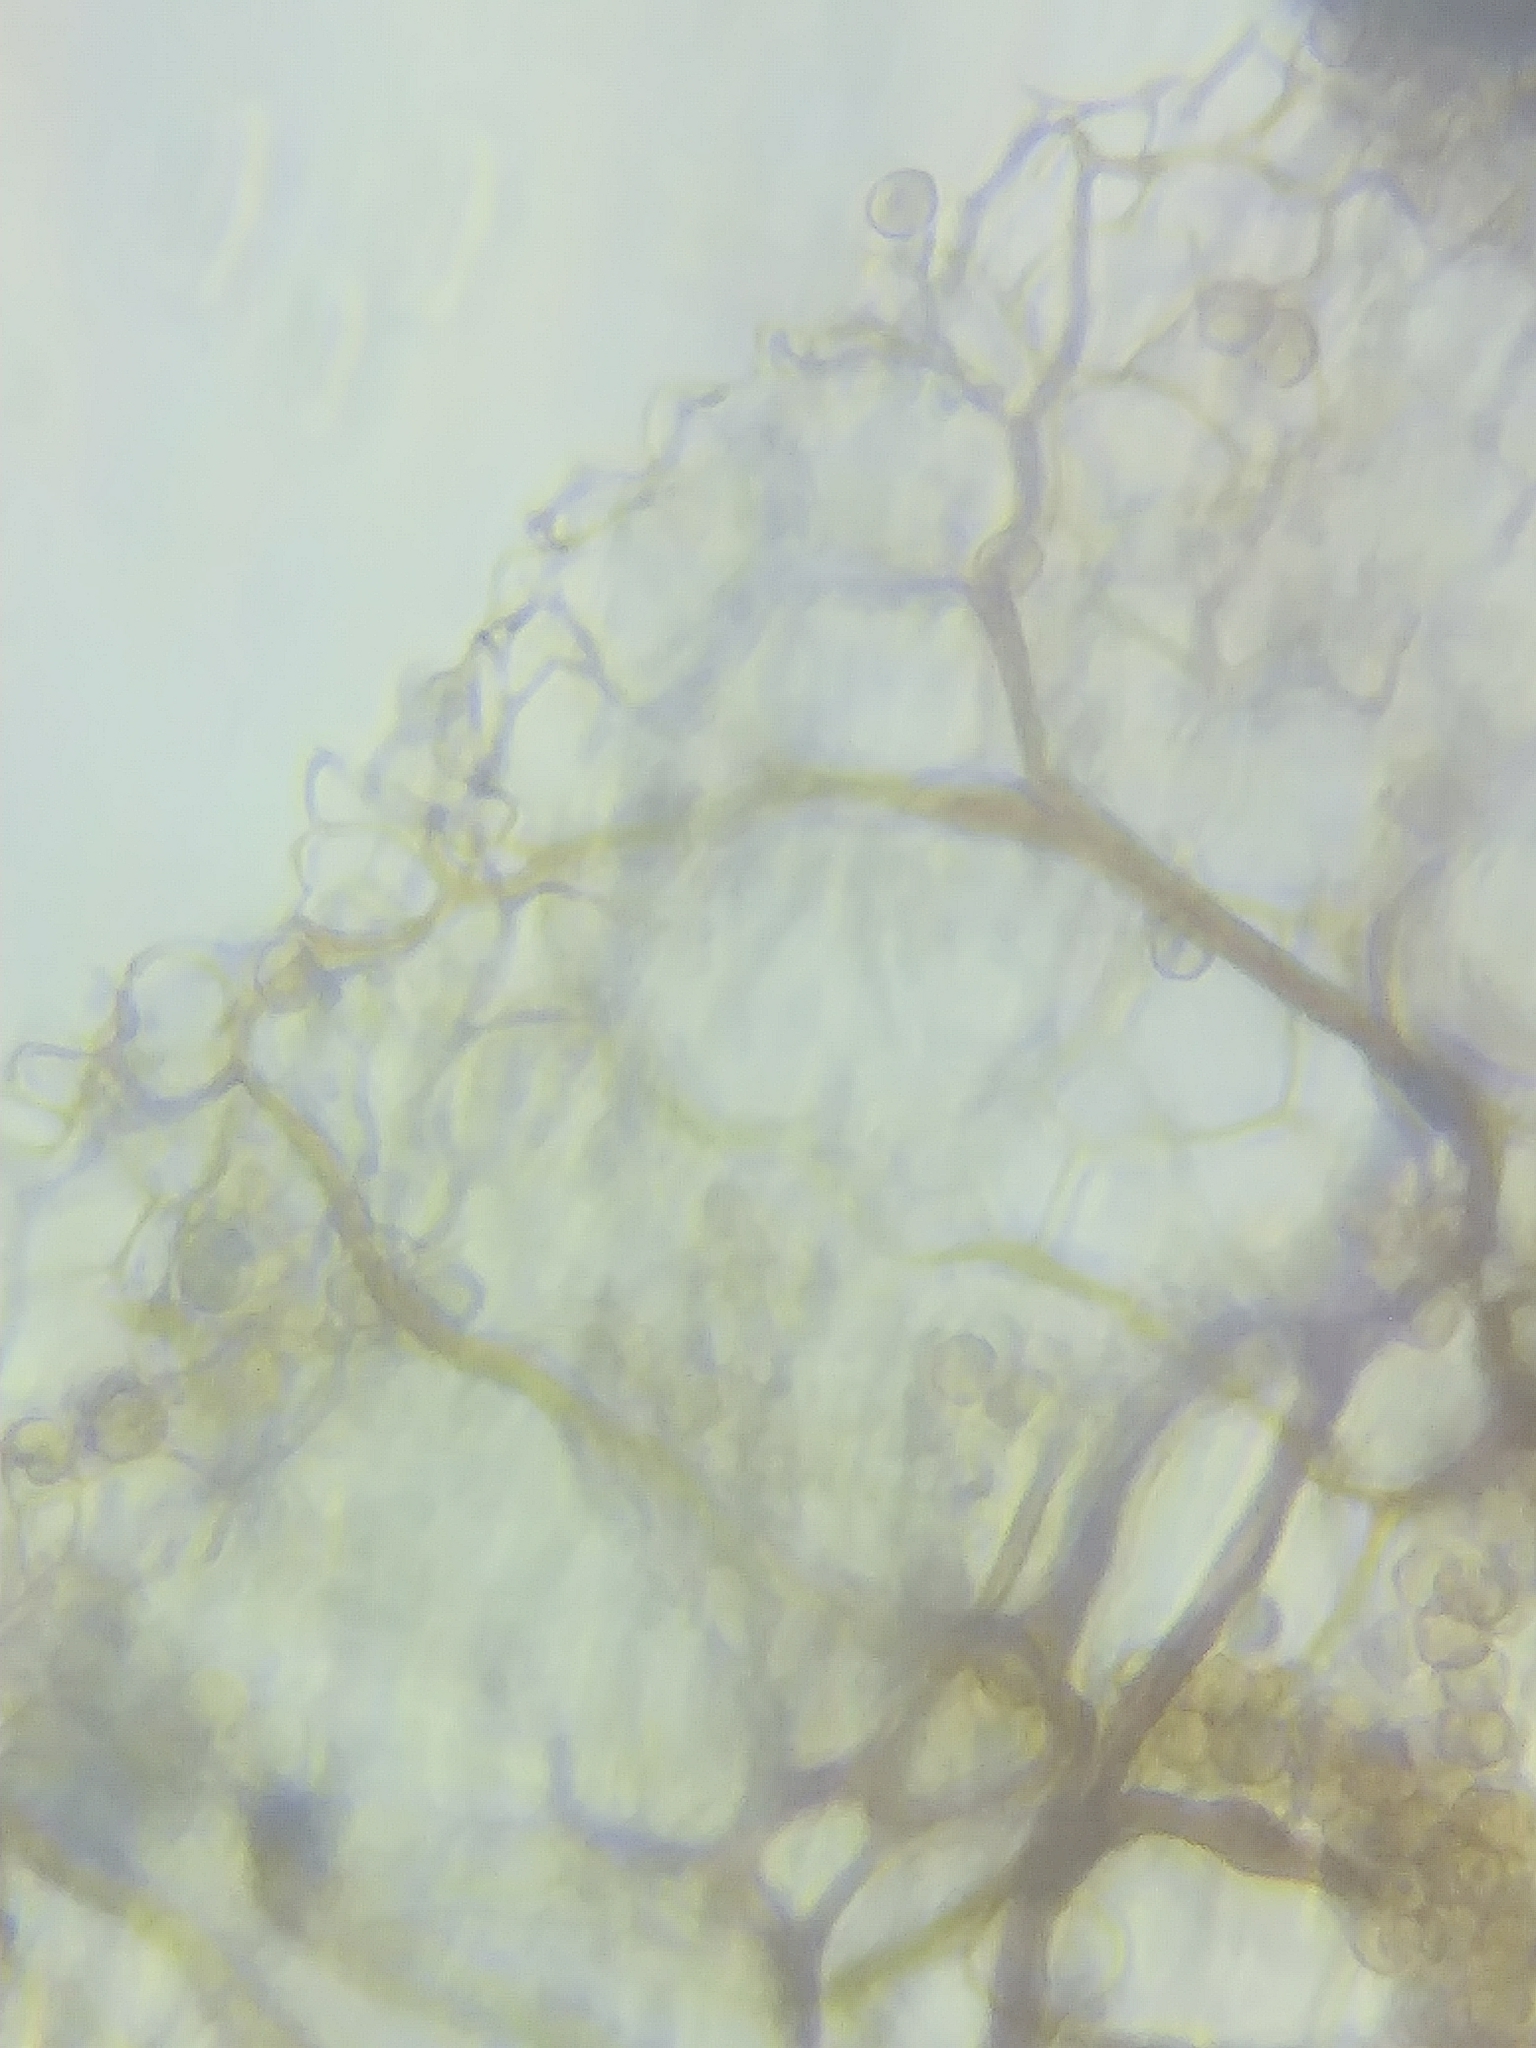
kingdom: Protozoa
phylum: Mycetozoa
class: Myxomycetes
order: Stemonitidales
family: Stemonitidaceae
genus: Stemonitis
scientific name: Stemonitis axifera
